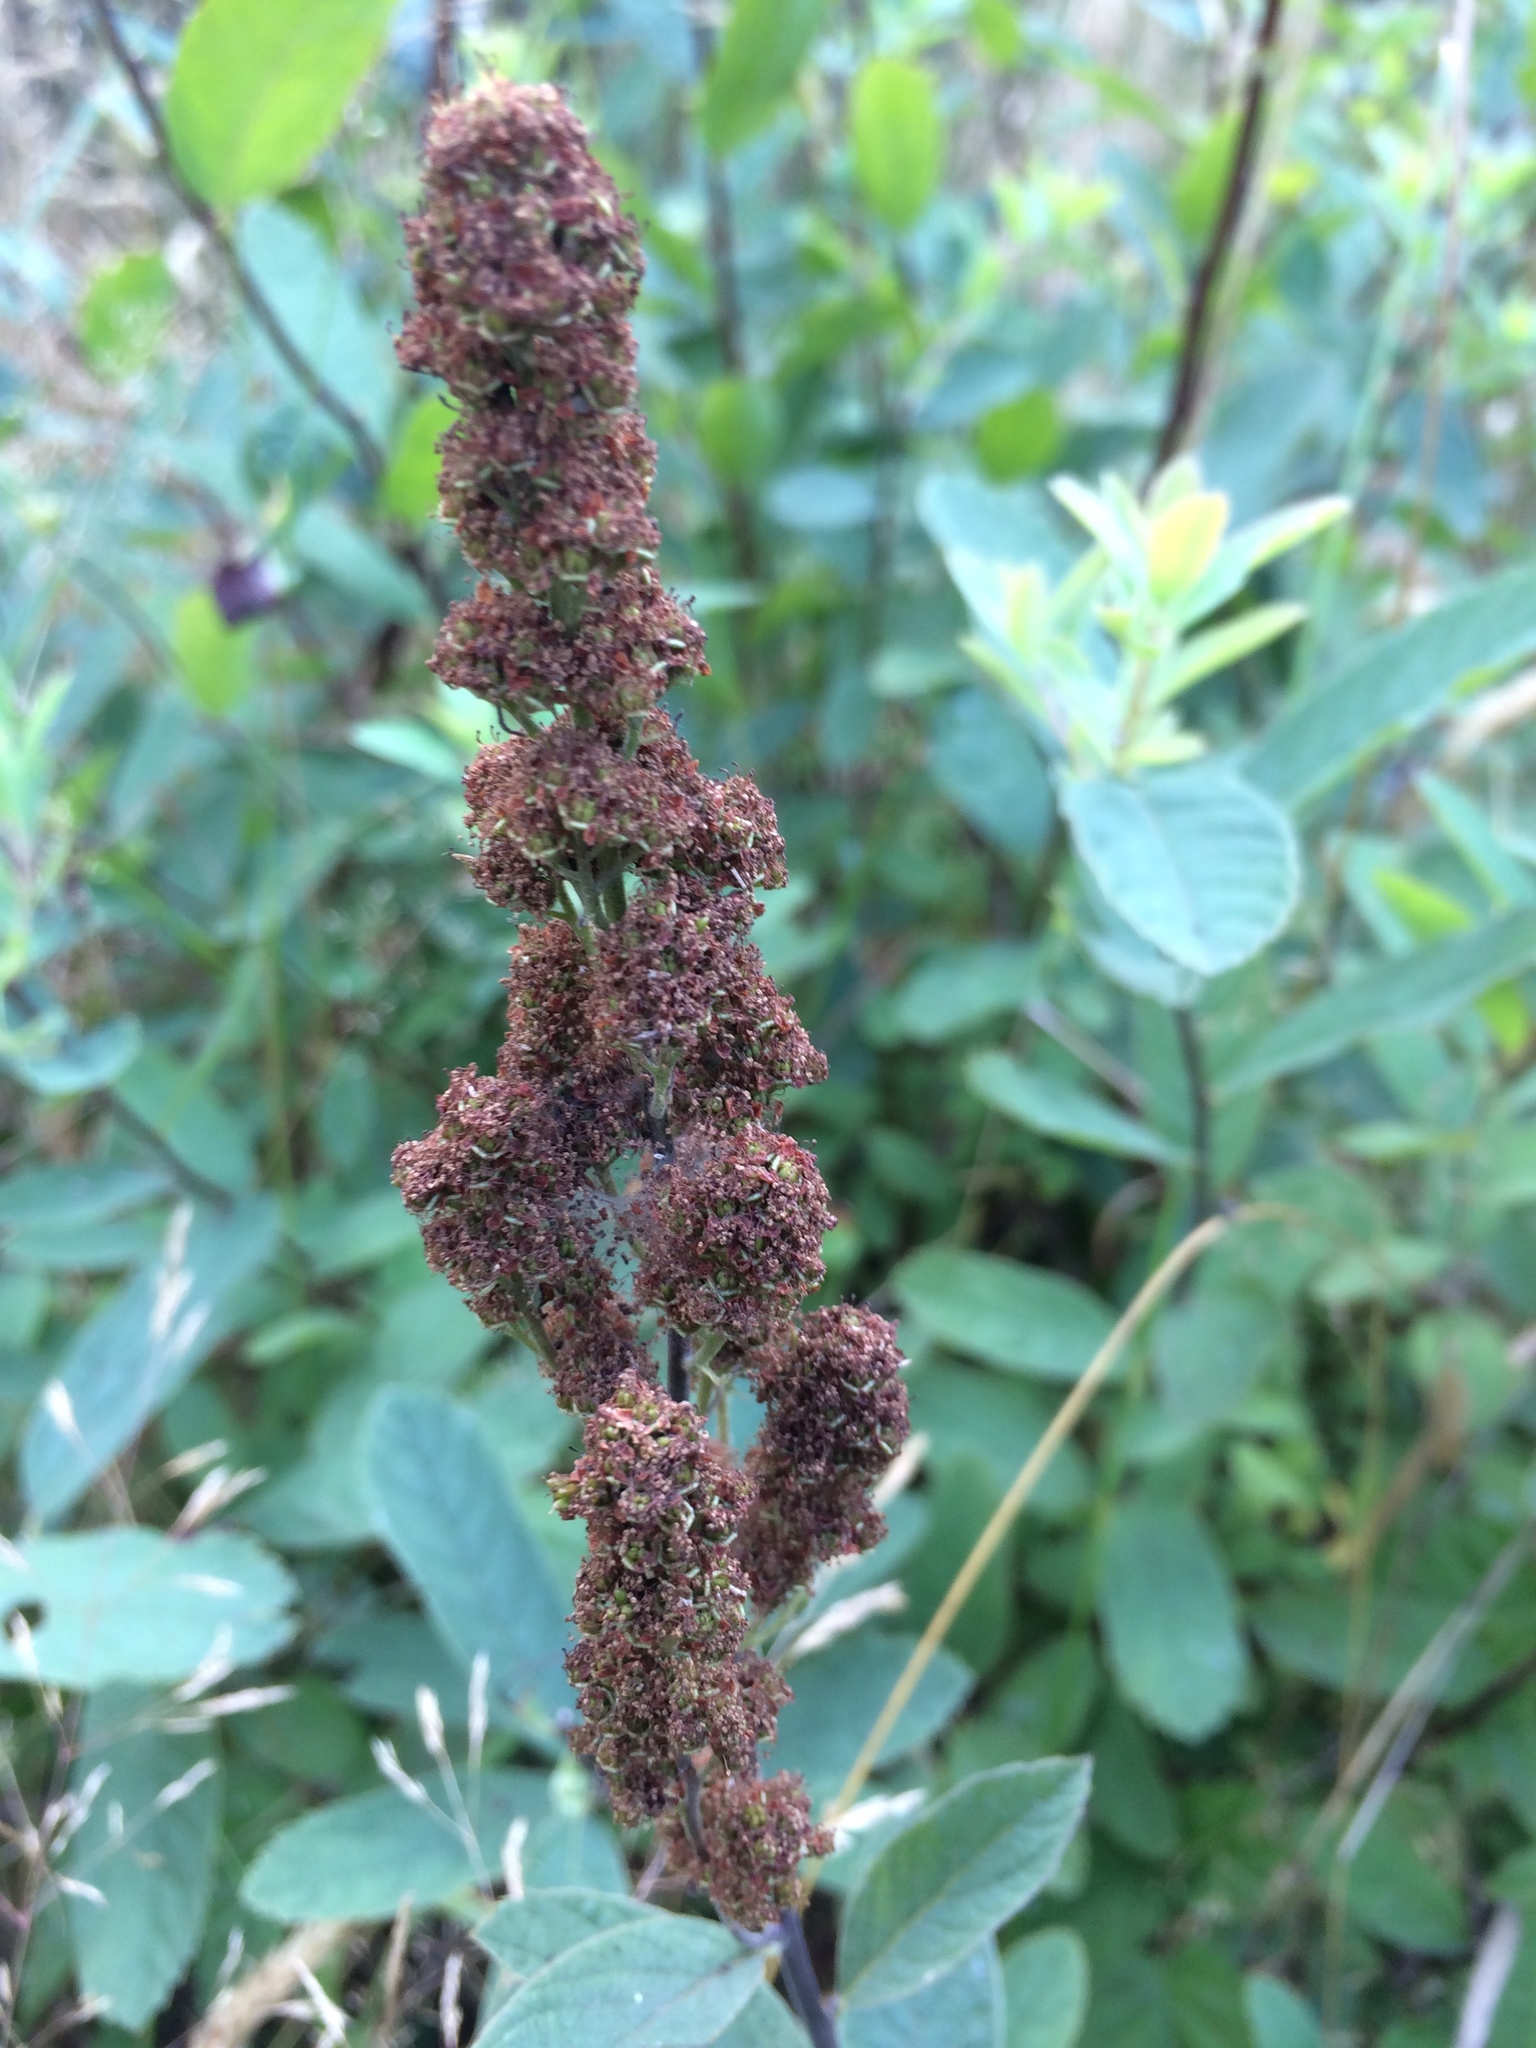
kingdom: Plantae
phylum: Tracheophyta
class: Magnoliopsida
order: Rosales
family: Rosaceae
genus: Spiraea
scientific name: Spiraea douglasii
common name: Steeplebush
